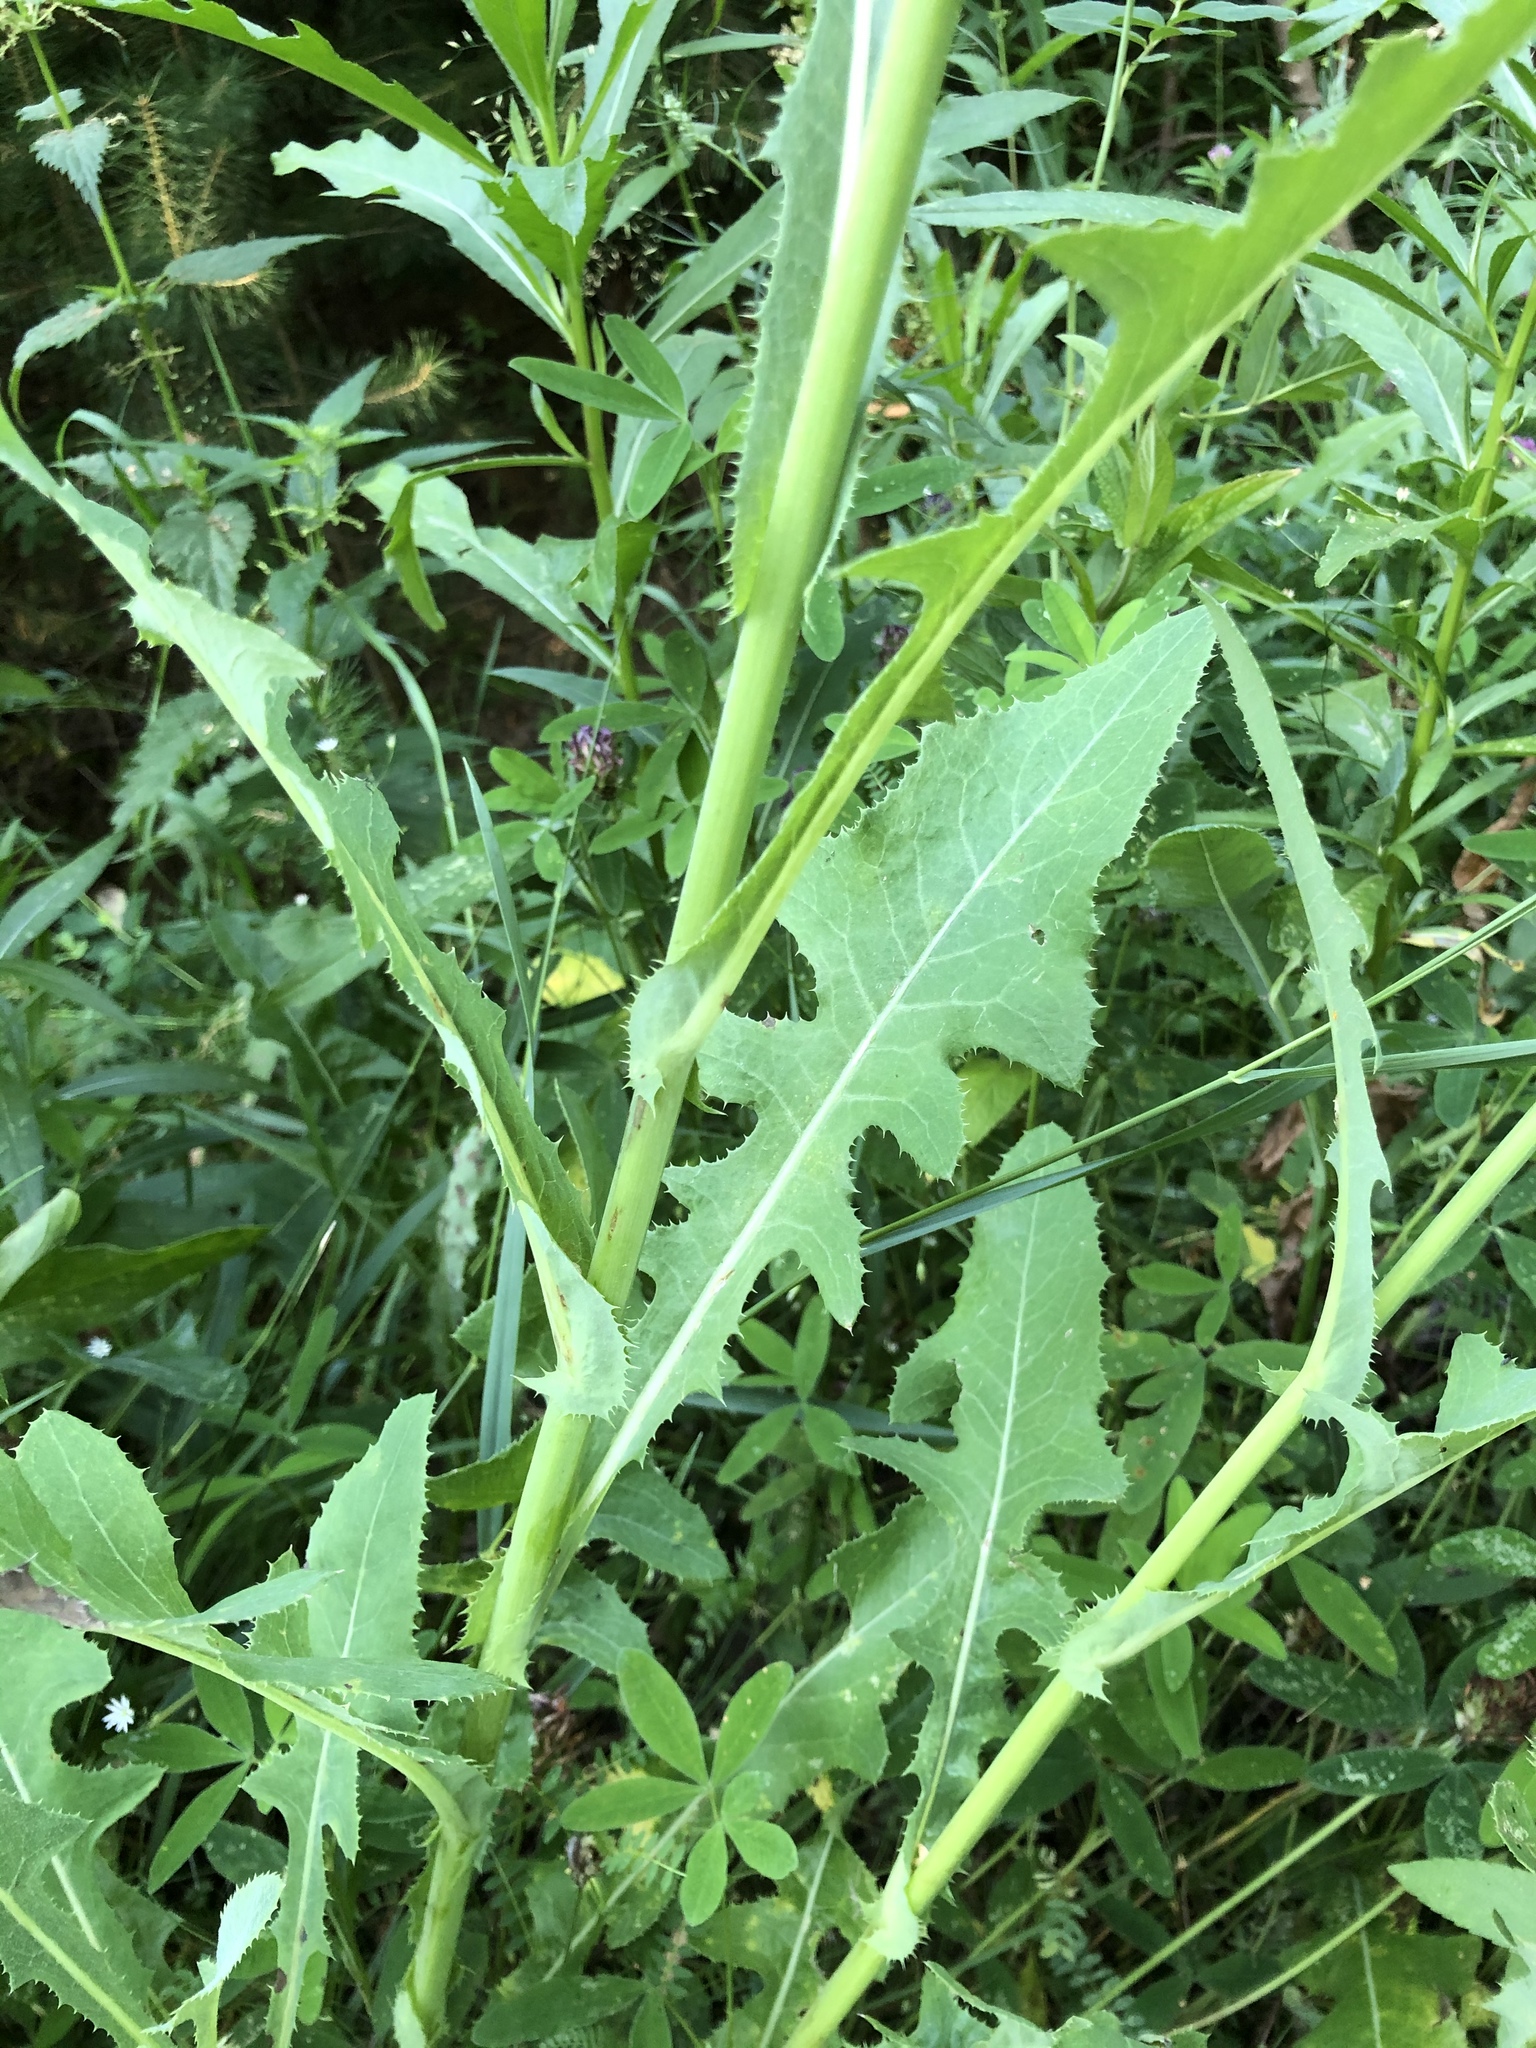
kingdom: Plantae
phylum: Tracheophyta
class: Magnoliopsida
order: Asterales
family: Asteraceae
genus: Sonchus
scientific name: Sonchus arvensis
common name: Perennial sow-thistle
